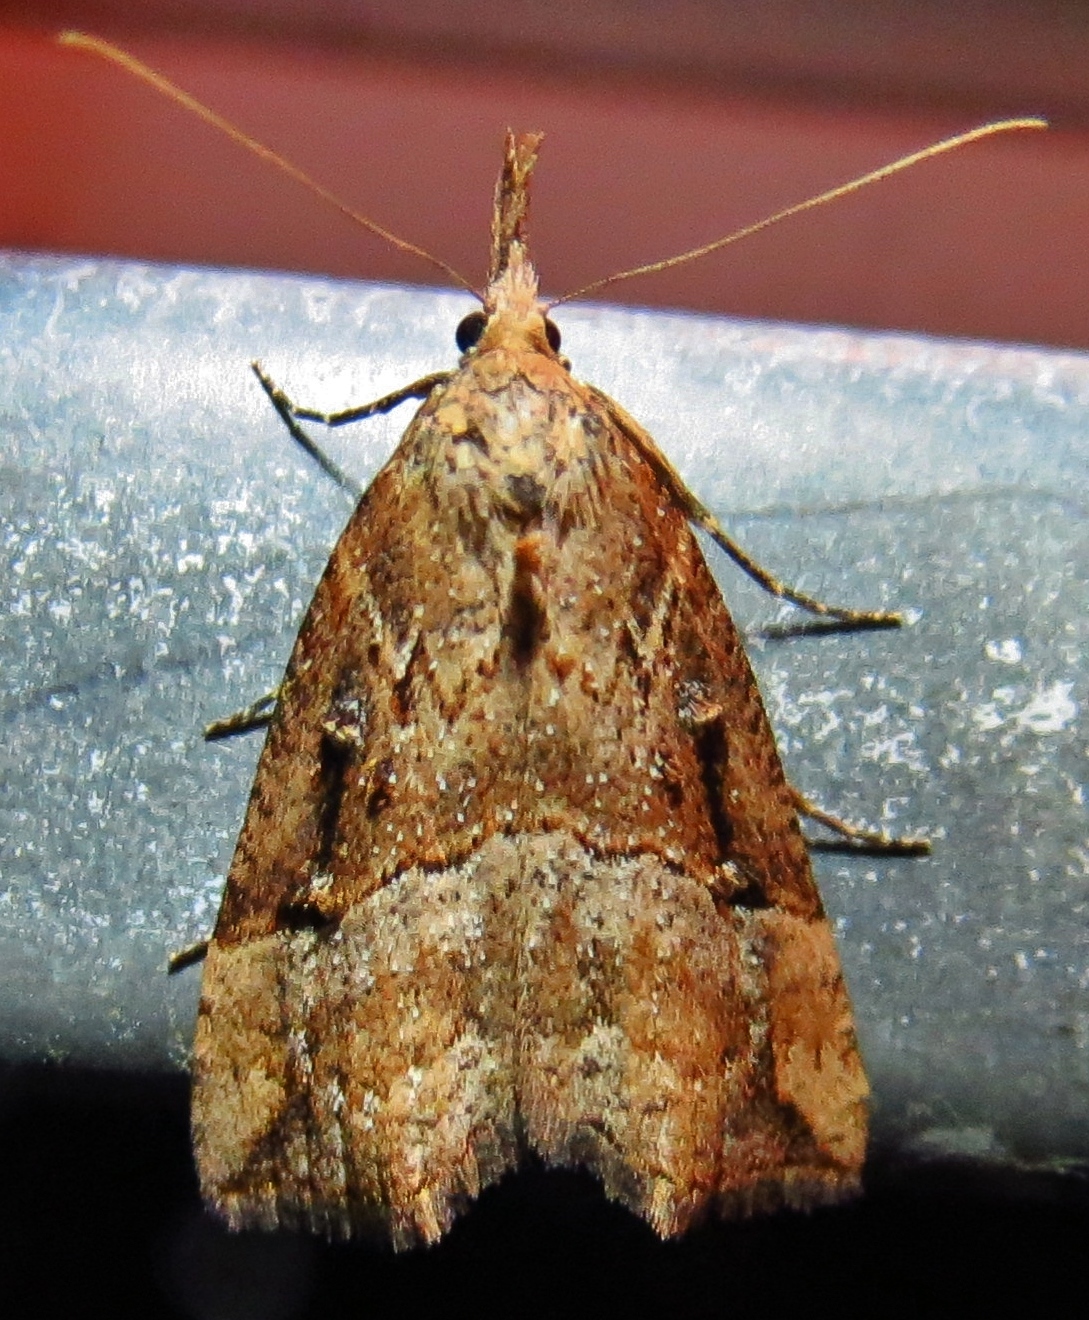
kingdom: Animalia
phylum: Arthropoda
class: Insecta
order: Lepidoptera
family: Erebidae
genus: Hypena
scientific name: Hypena rostralis
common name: Buttoned snout
